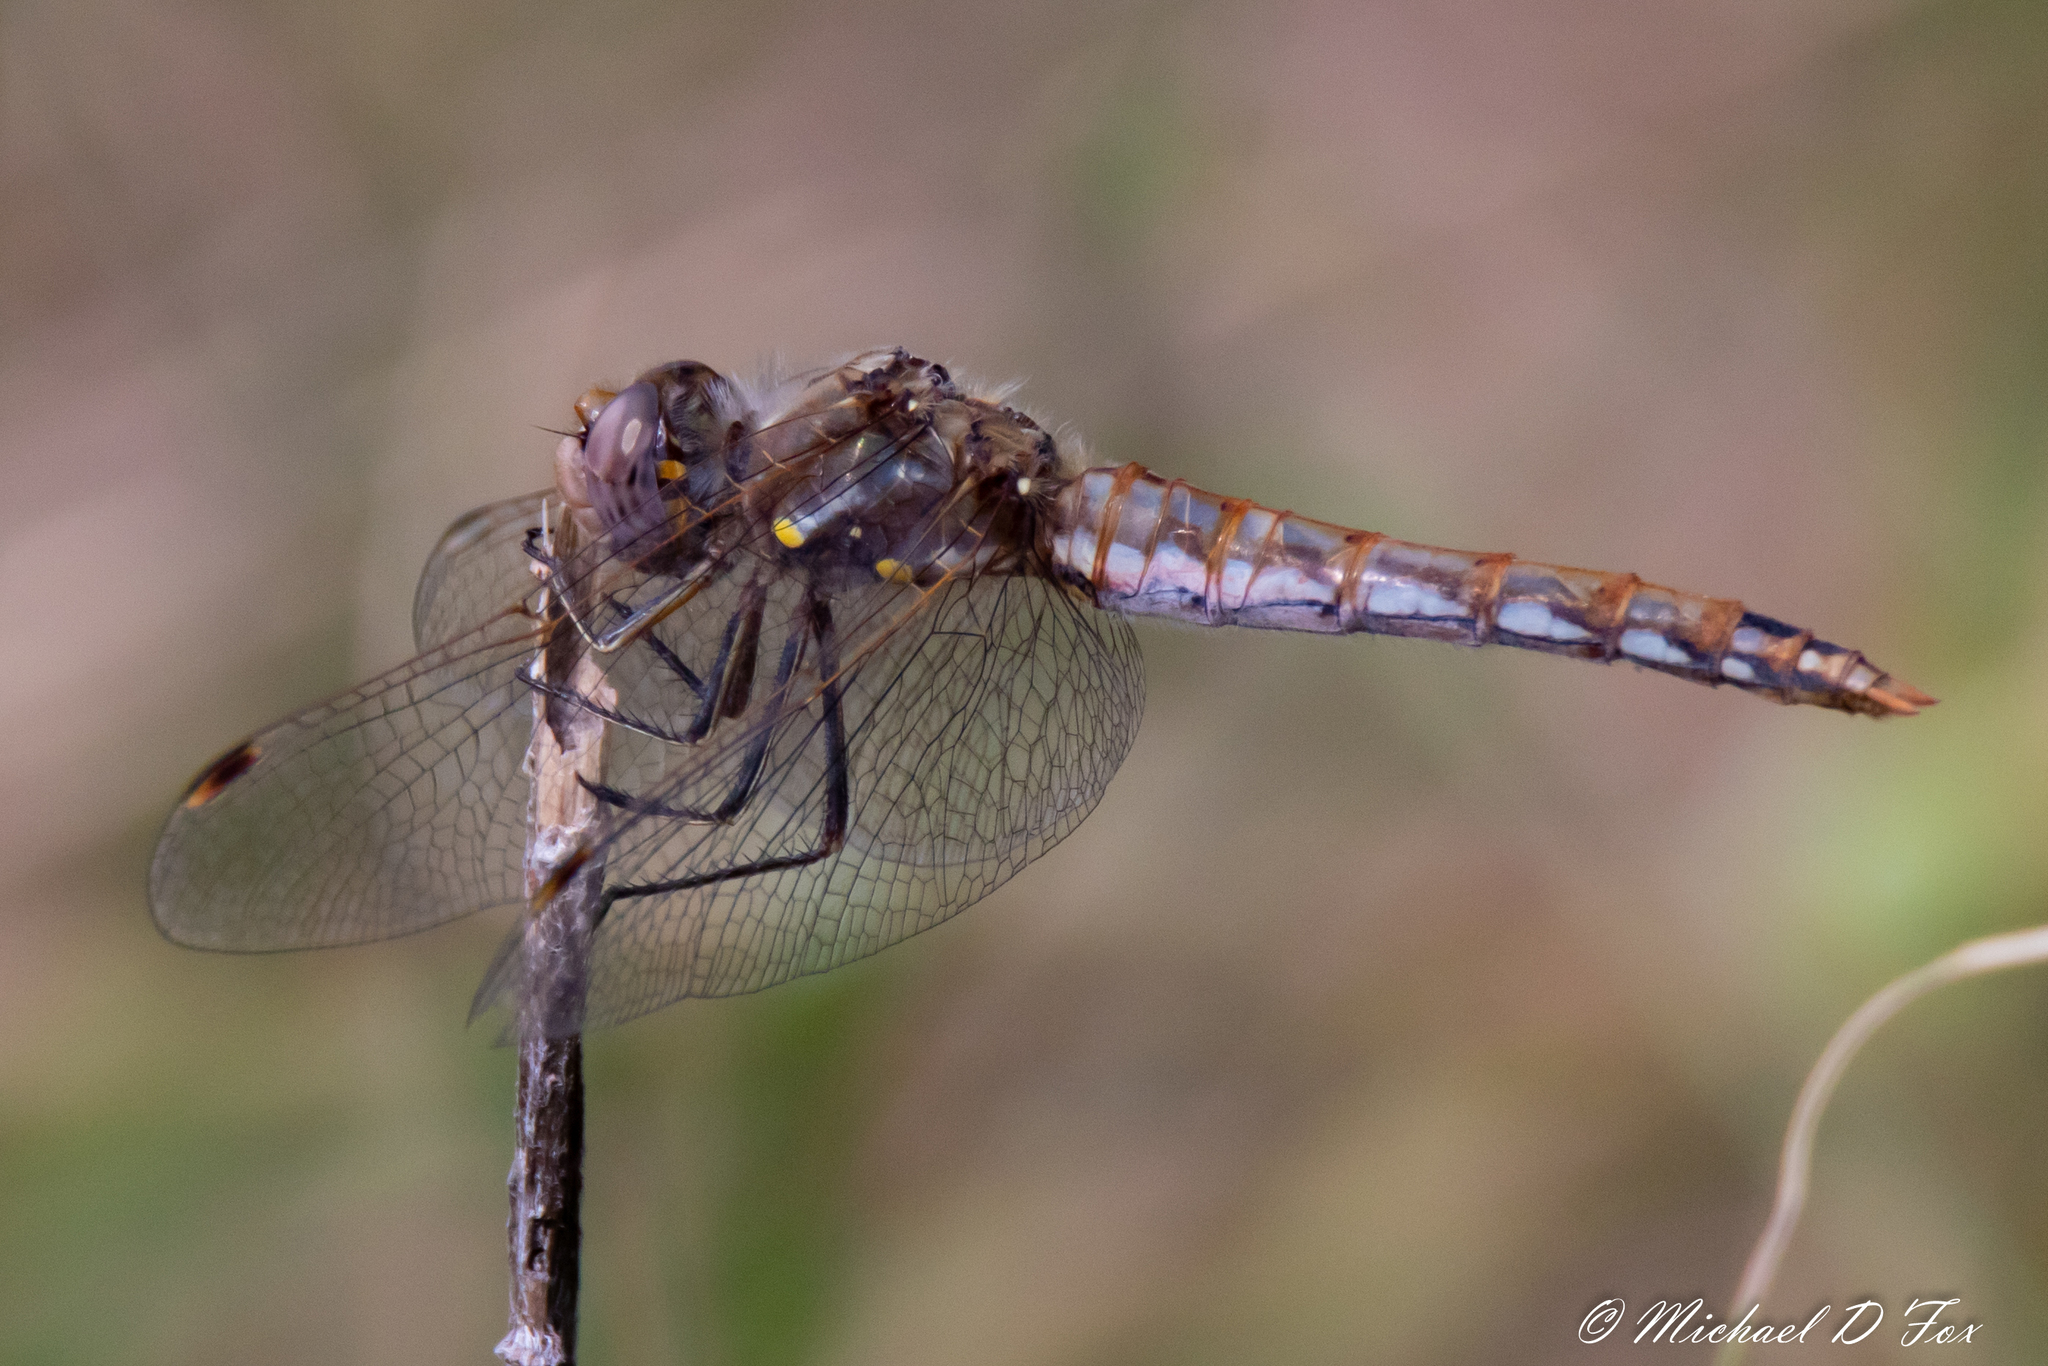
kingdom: Animalia
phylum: Arthropoda
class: Insecta
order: Odonata
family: Libellulidae
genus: Sympetrum
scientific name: Sympetrum corruptum
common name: Variegated meadowhawk
